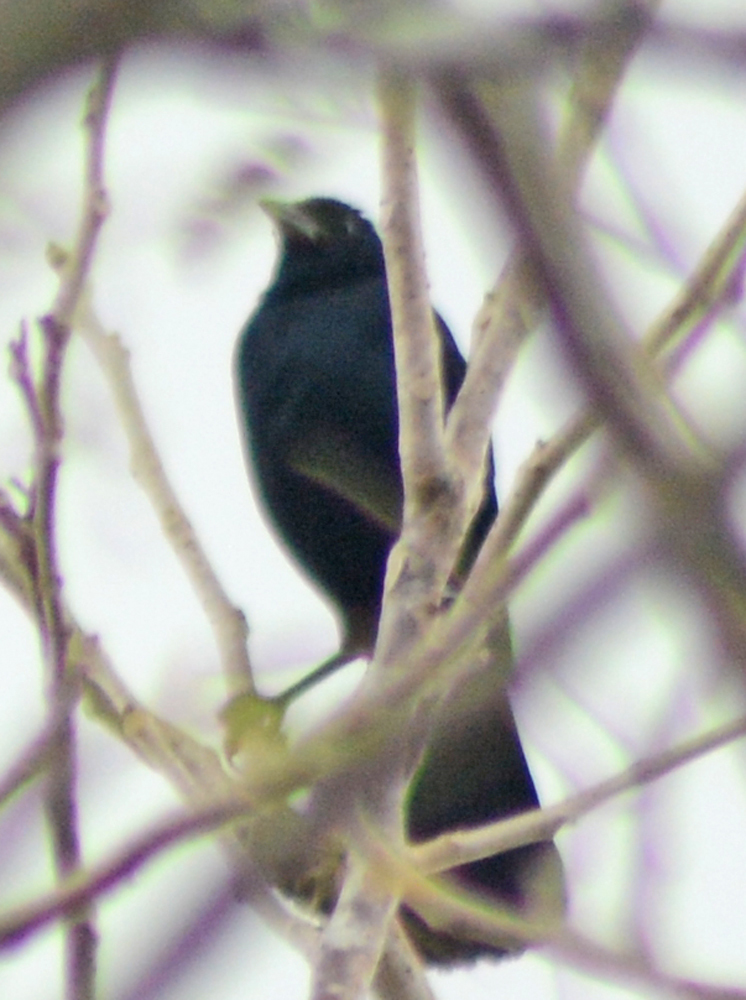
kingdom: Animalia
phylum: Chordata
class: Aves
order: Passeriformes
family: Icteridae
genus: Dives
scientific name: Dives dives
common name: Melodious blackbird
